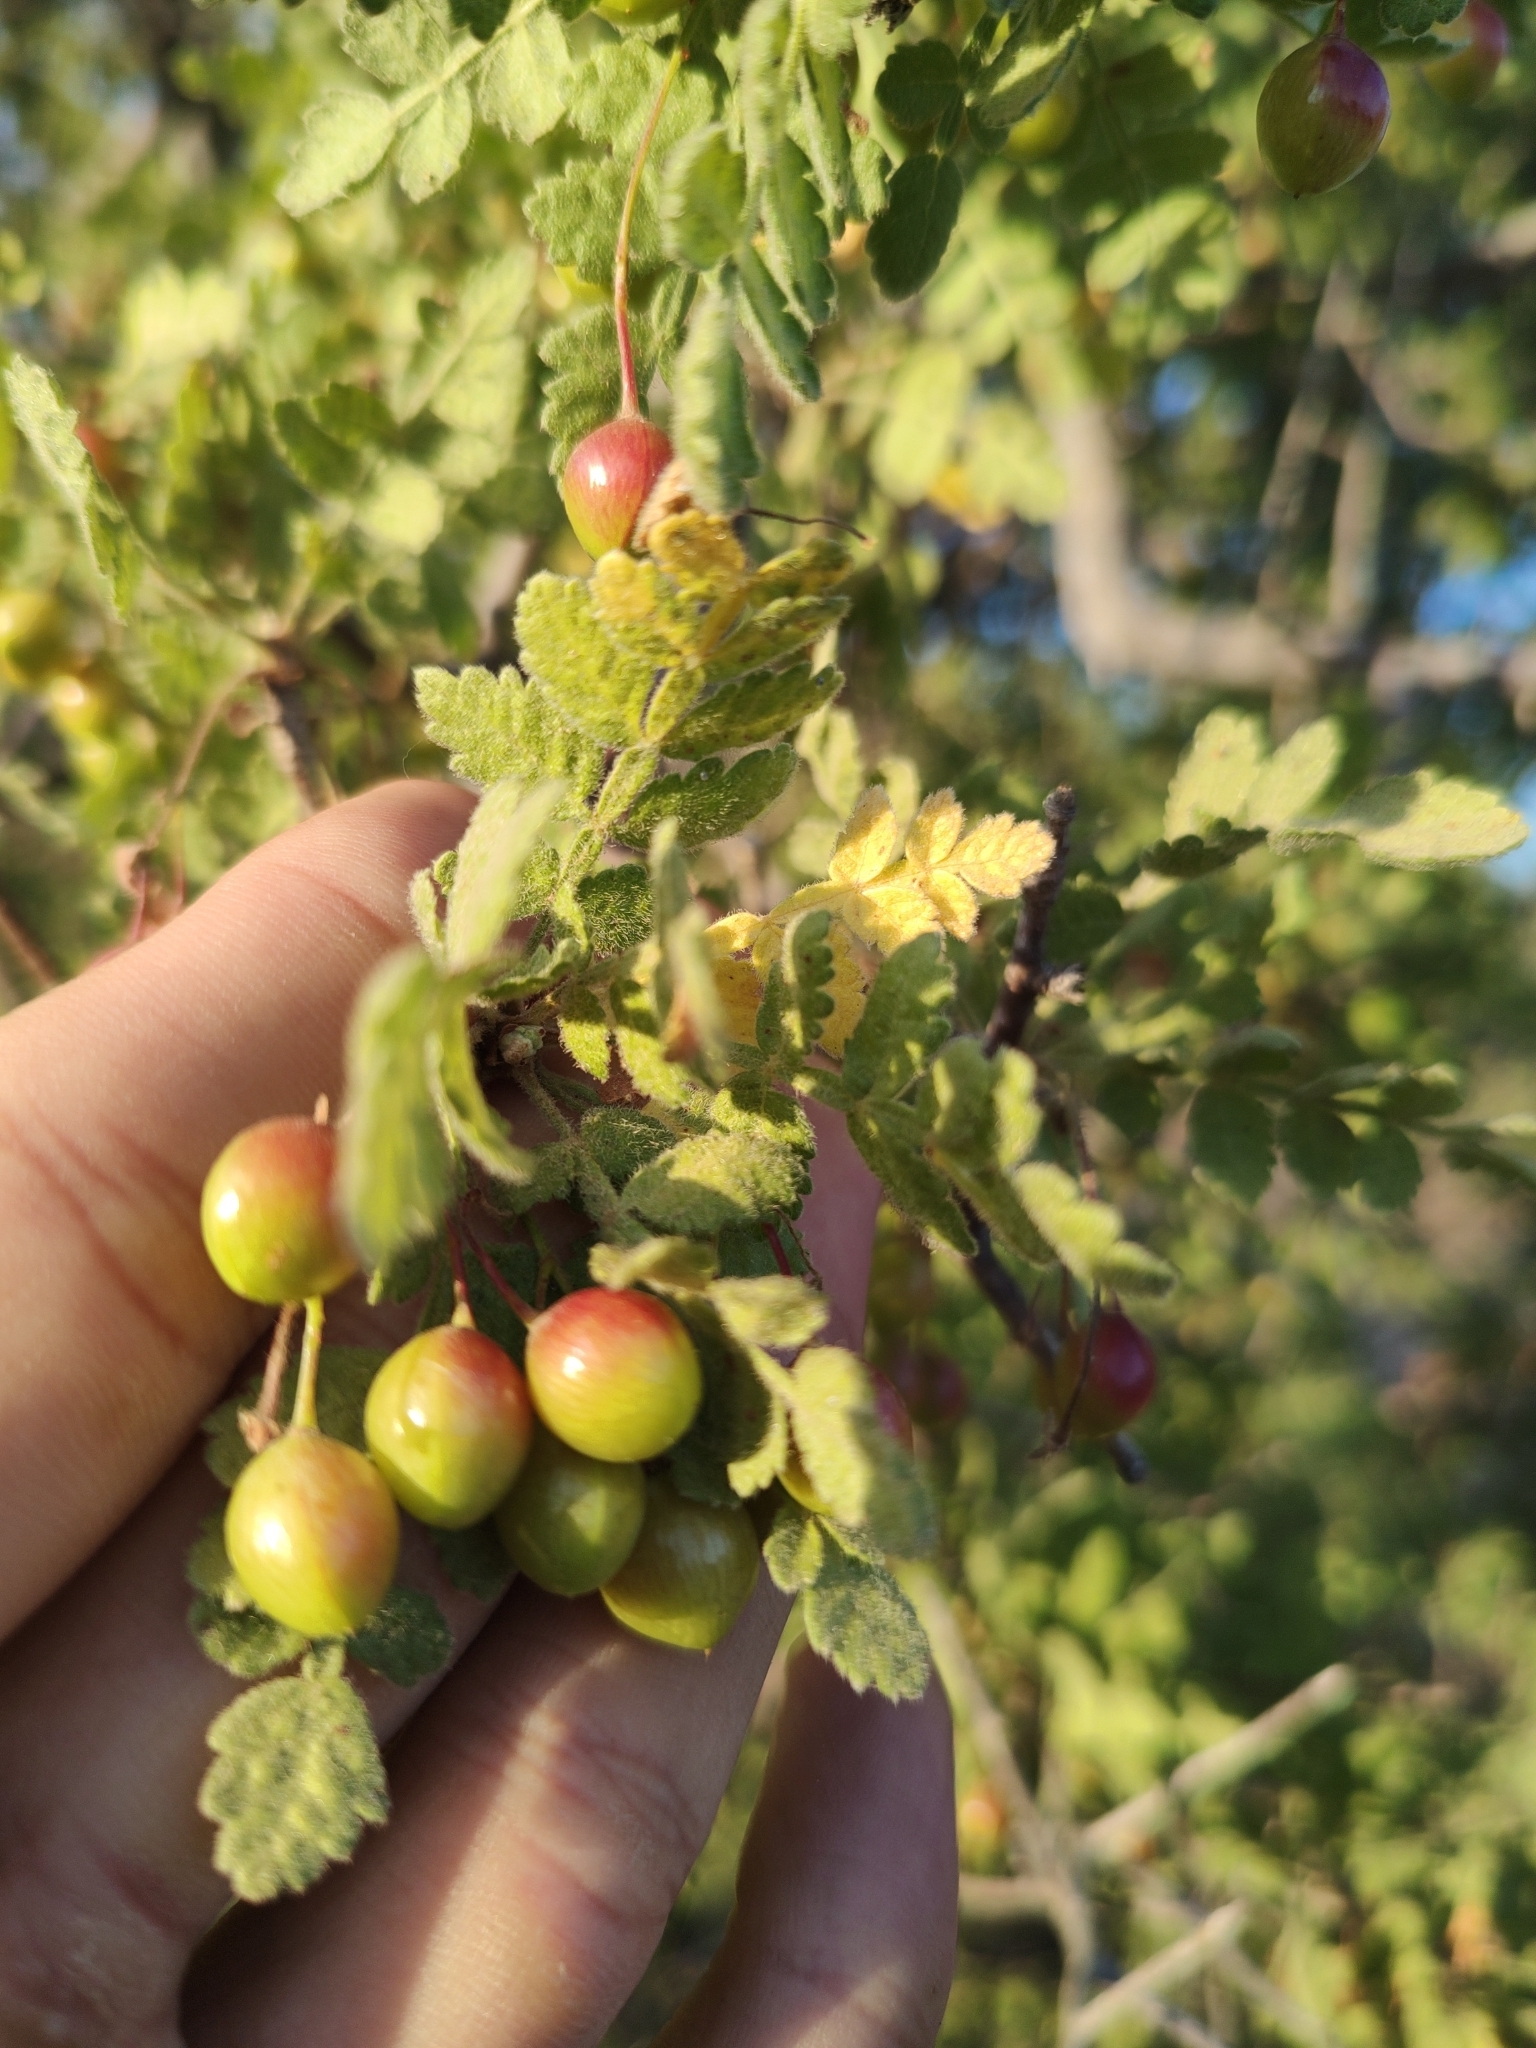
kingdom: Plantae
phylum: Tracheophyta
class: Magnoliopsida
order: Sapindales
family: Burseraceae
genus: Bursera
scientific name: Bursera filicifolia
